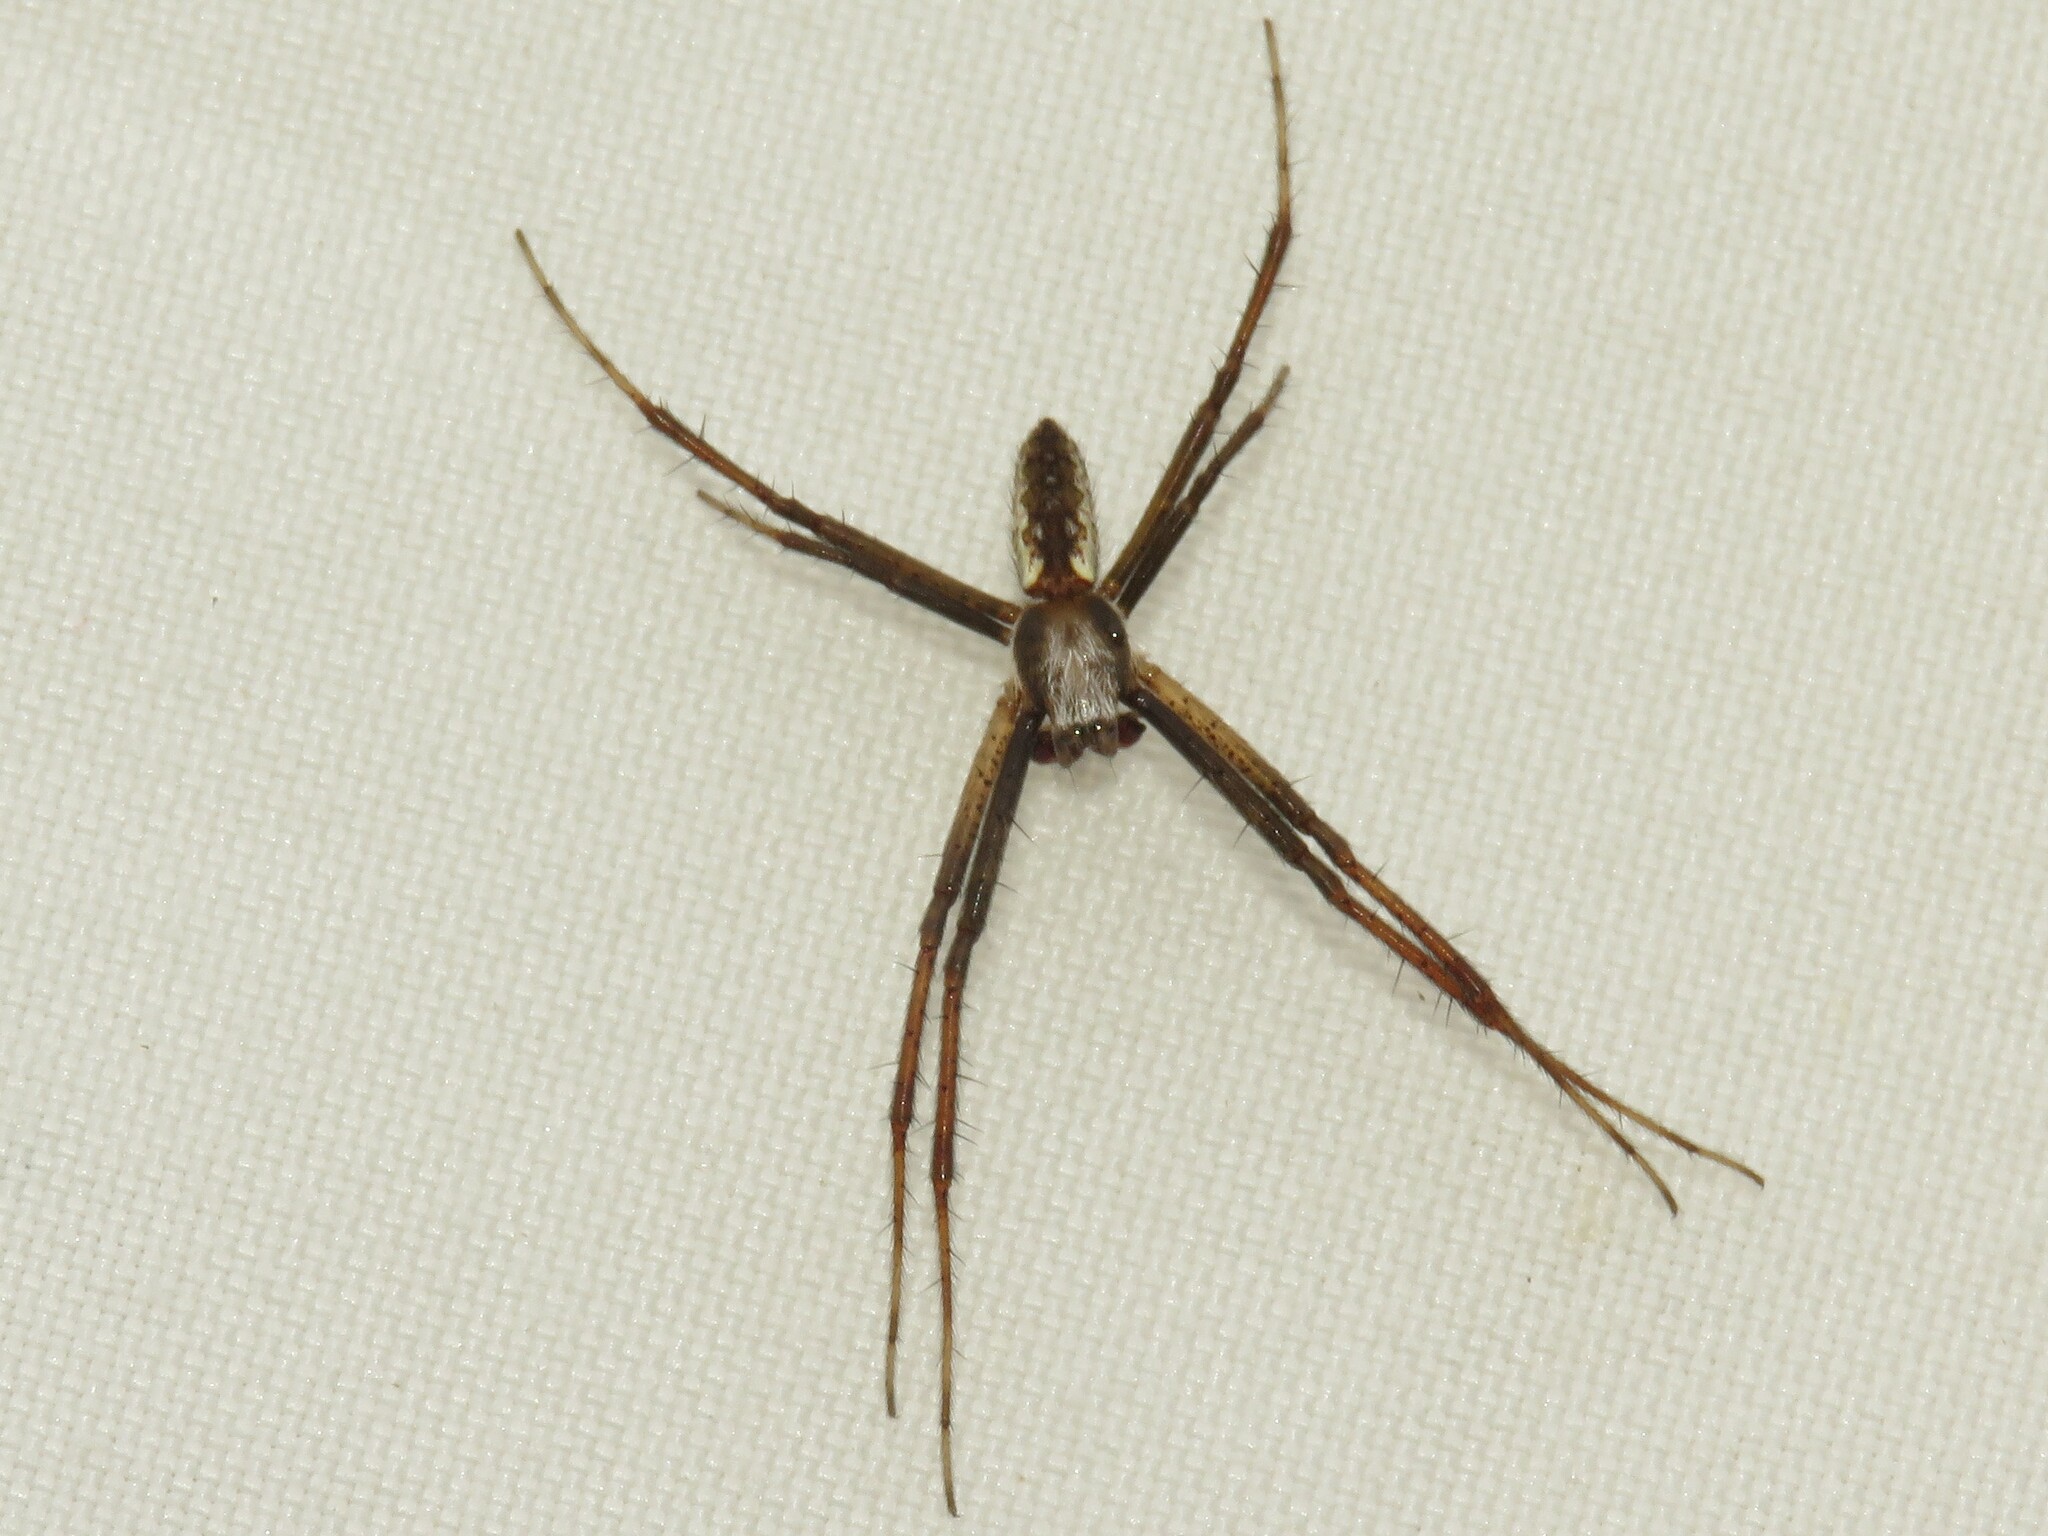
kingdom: Animalia
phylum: Arthropoda
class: Arachnida
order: Araneae
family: Araneidae
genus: Argiope
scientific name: Argiope aurantia
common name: Orb weavers
